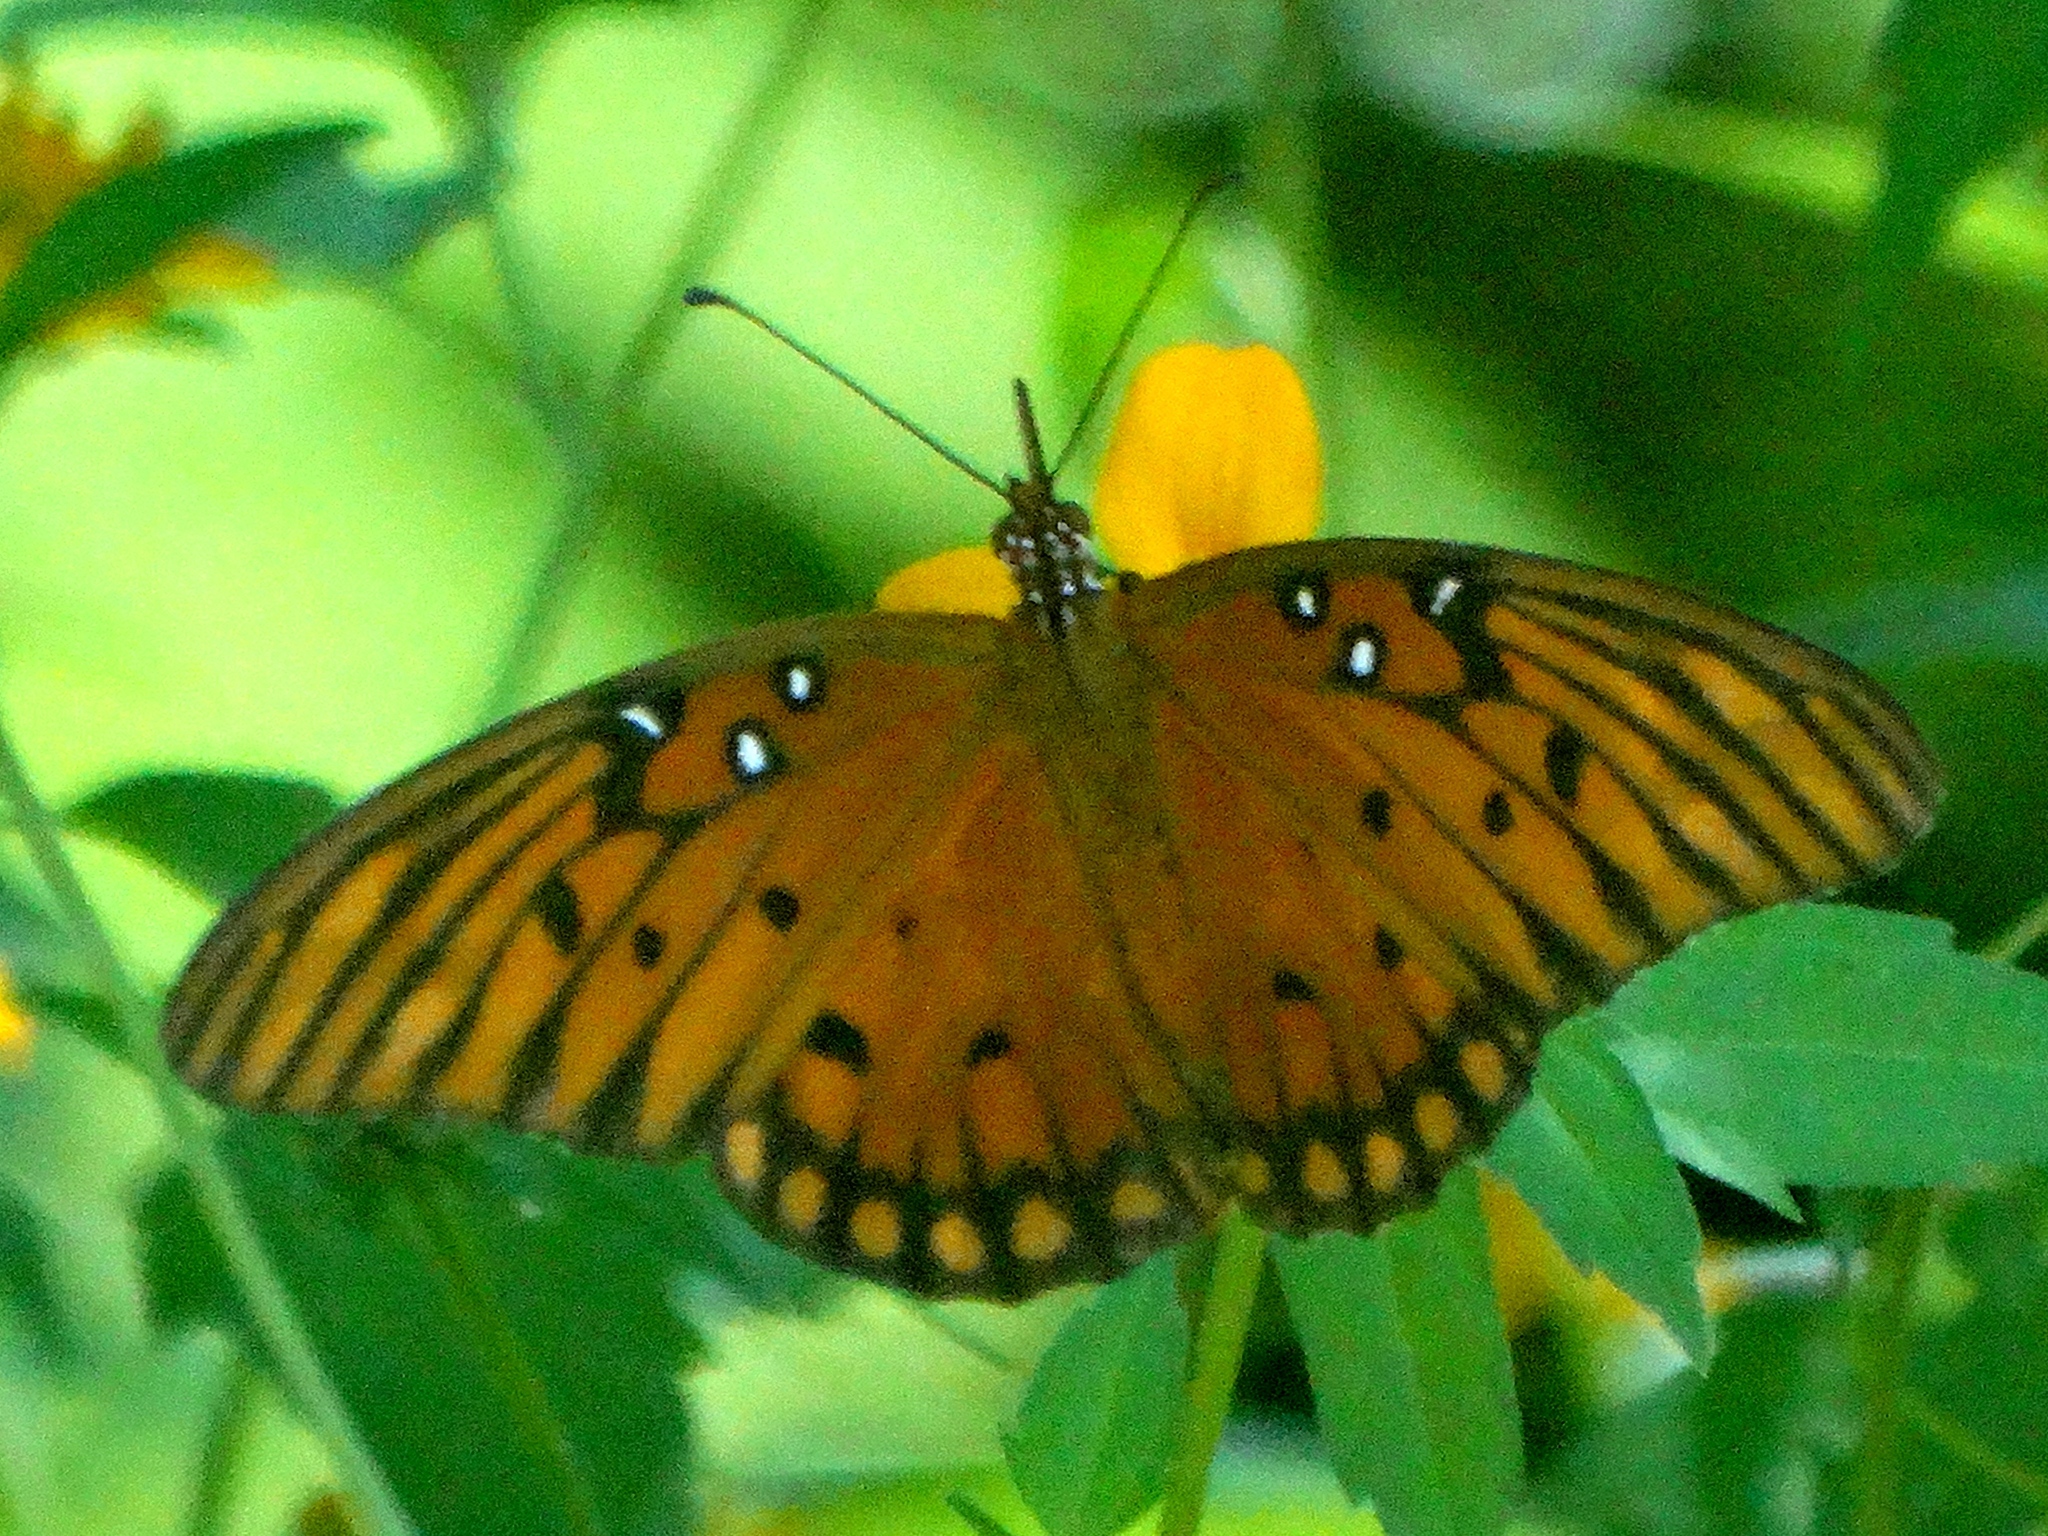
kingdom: Animalia
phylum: Arthropoda
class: Insecta
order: Lepidoptera
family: Nymphalidae
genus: Dione
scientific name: Dione vanillae
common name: Gulf fritillary
